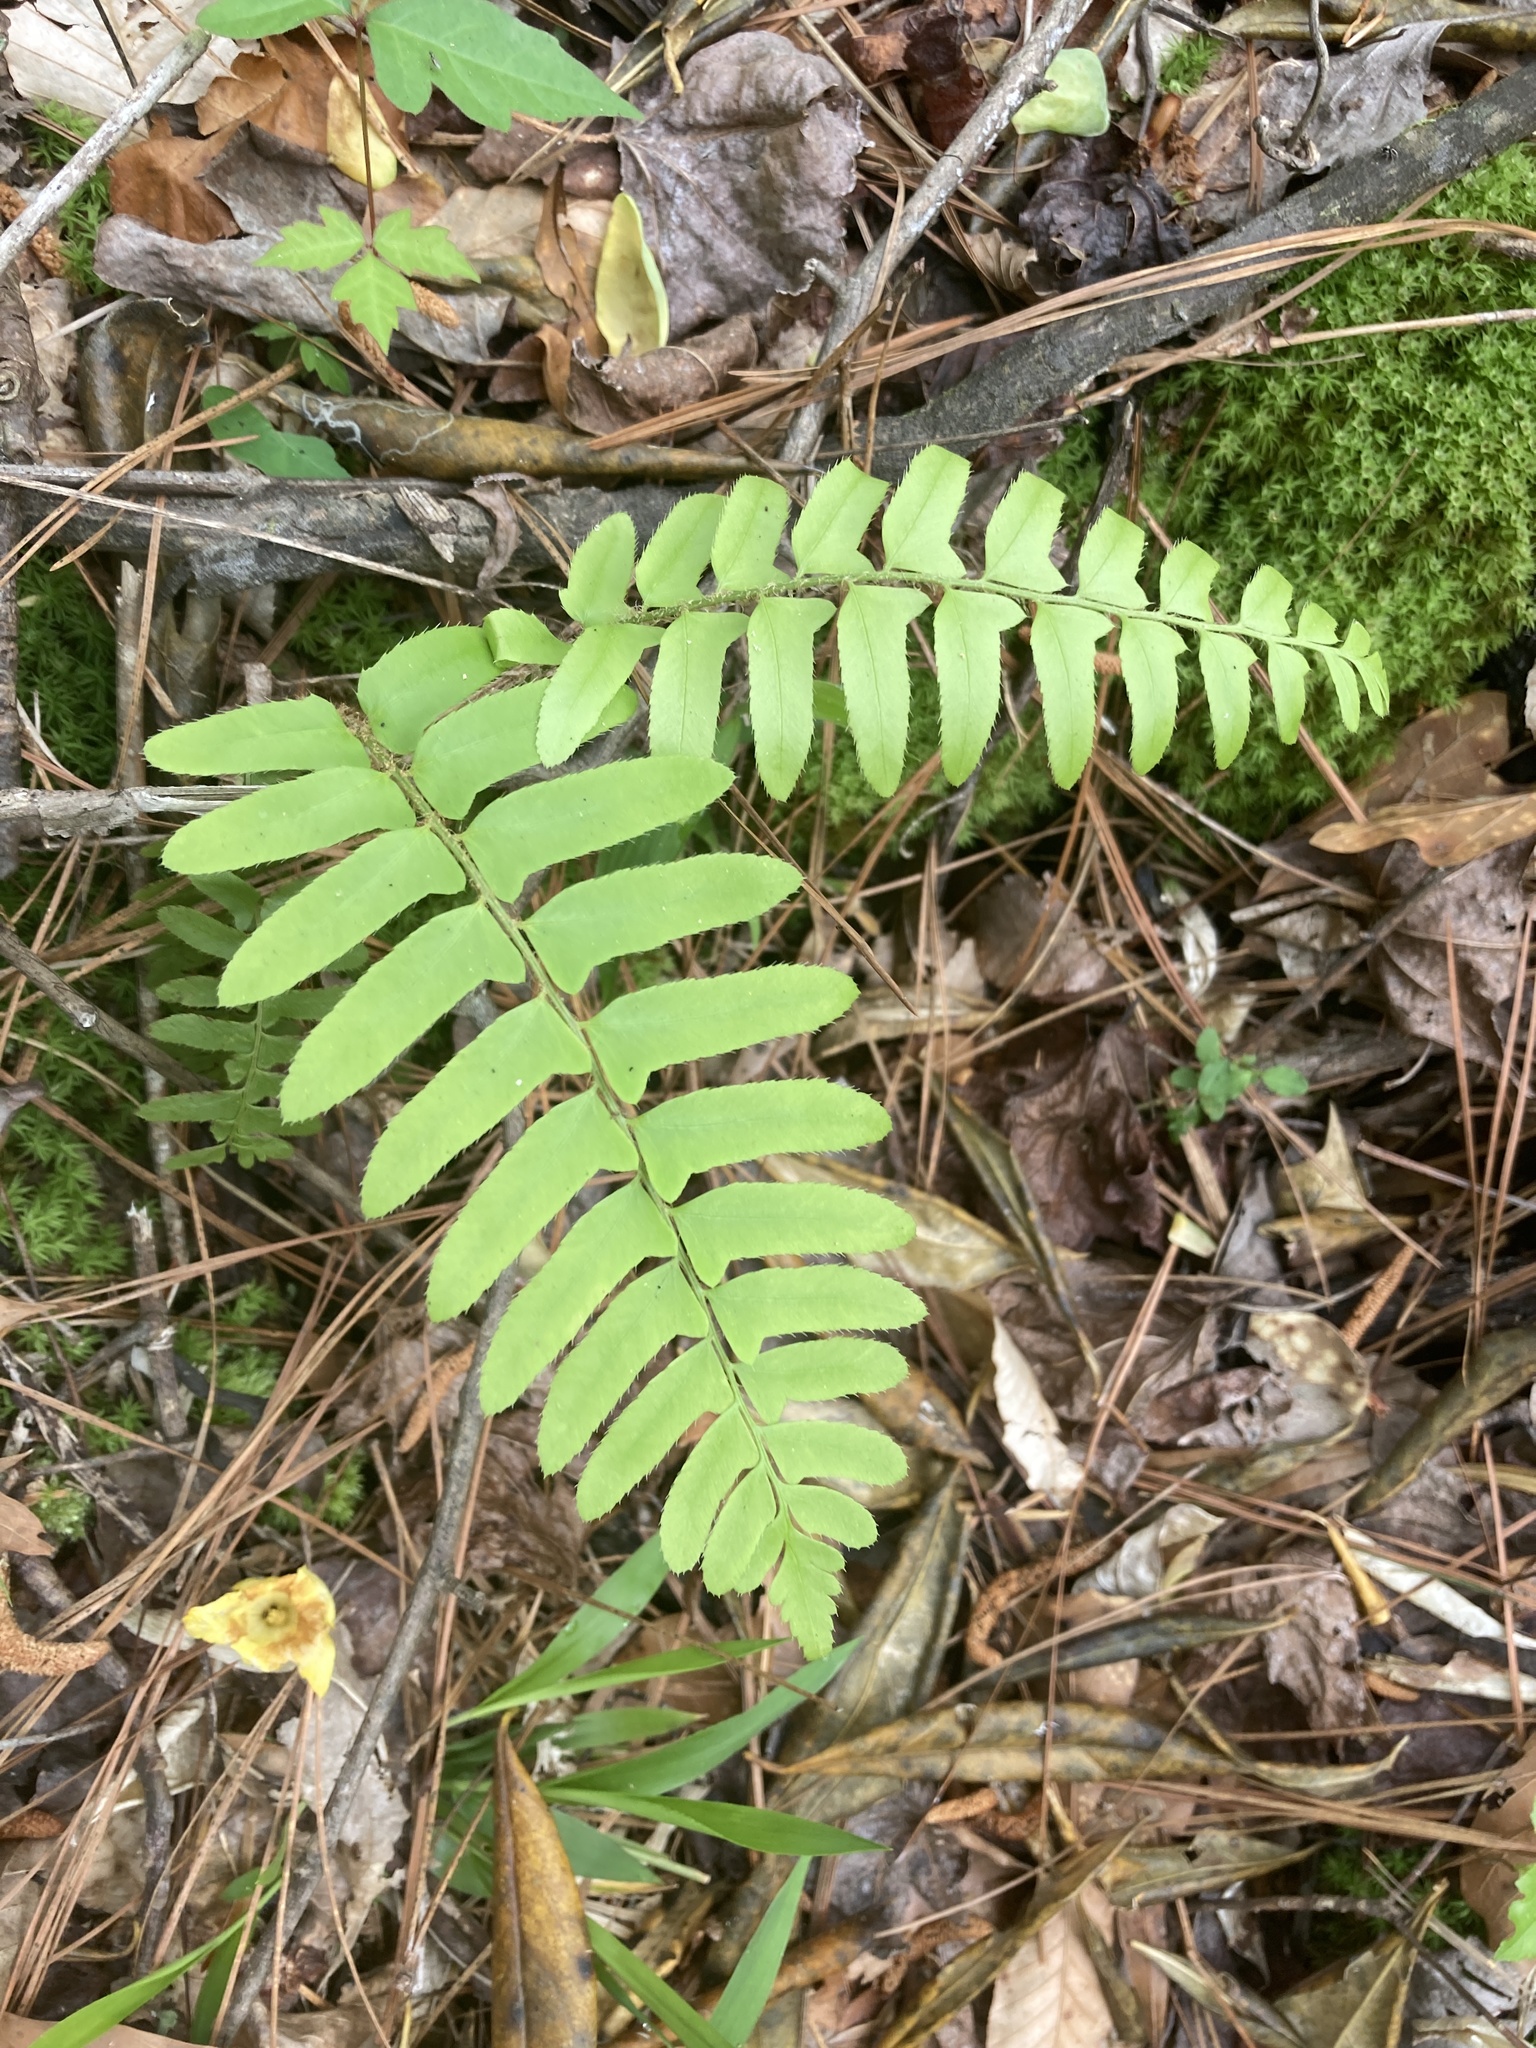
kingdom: Plantae
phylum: Tracheophyta
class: Polypodiopsida
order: Polypodiales
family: Dryopteridaceae
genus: Polystichum
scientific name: Polystichum acrostichoides
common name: Christmas fern
